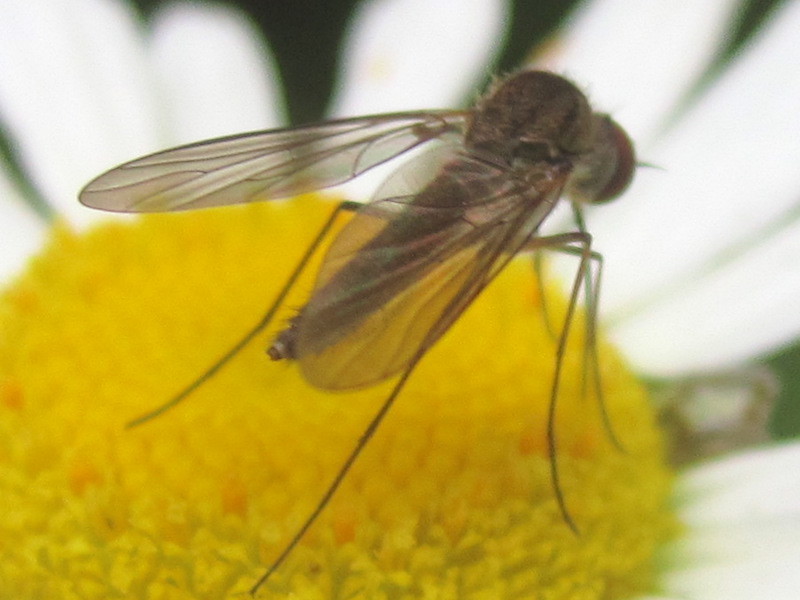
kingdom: Animalia
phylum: Arthropoda
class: Insecta
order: Diptera
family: Bombyliidae
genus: Geron
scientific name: Geron calvus
